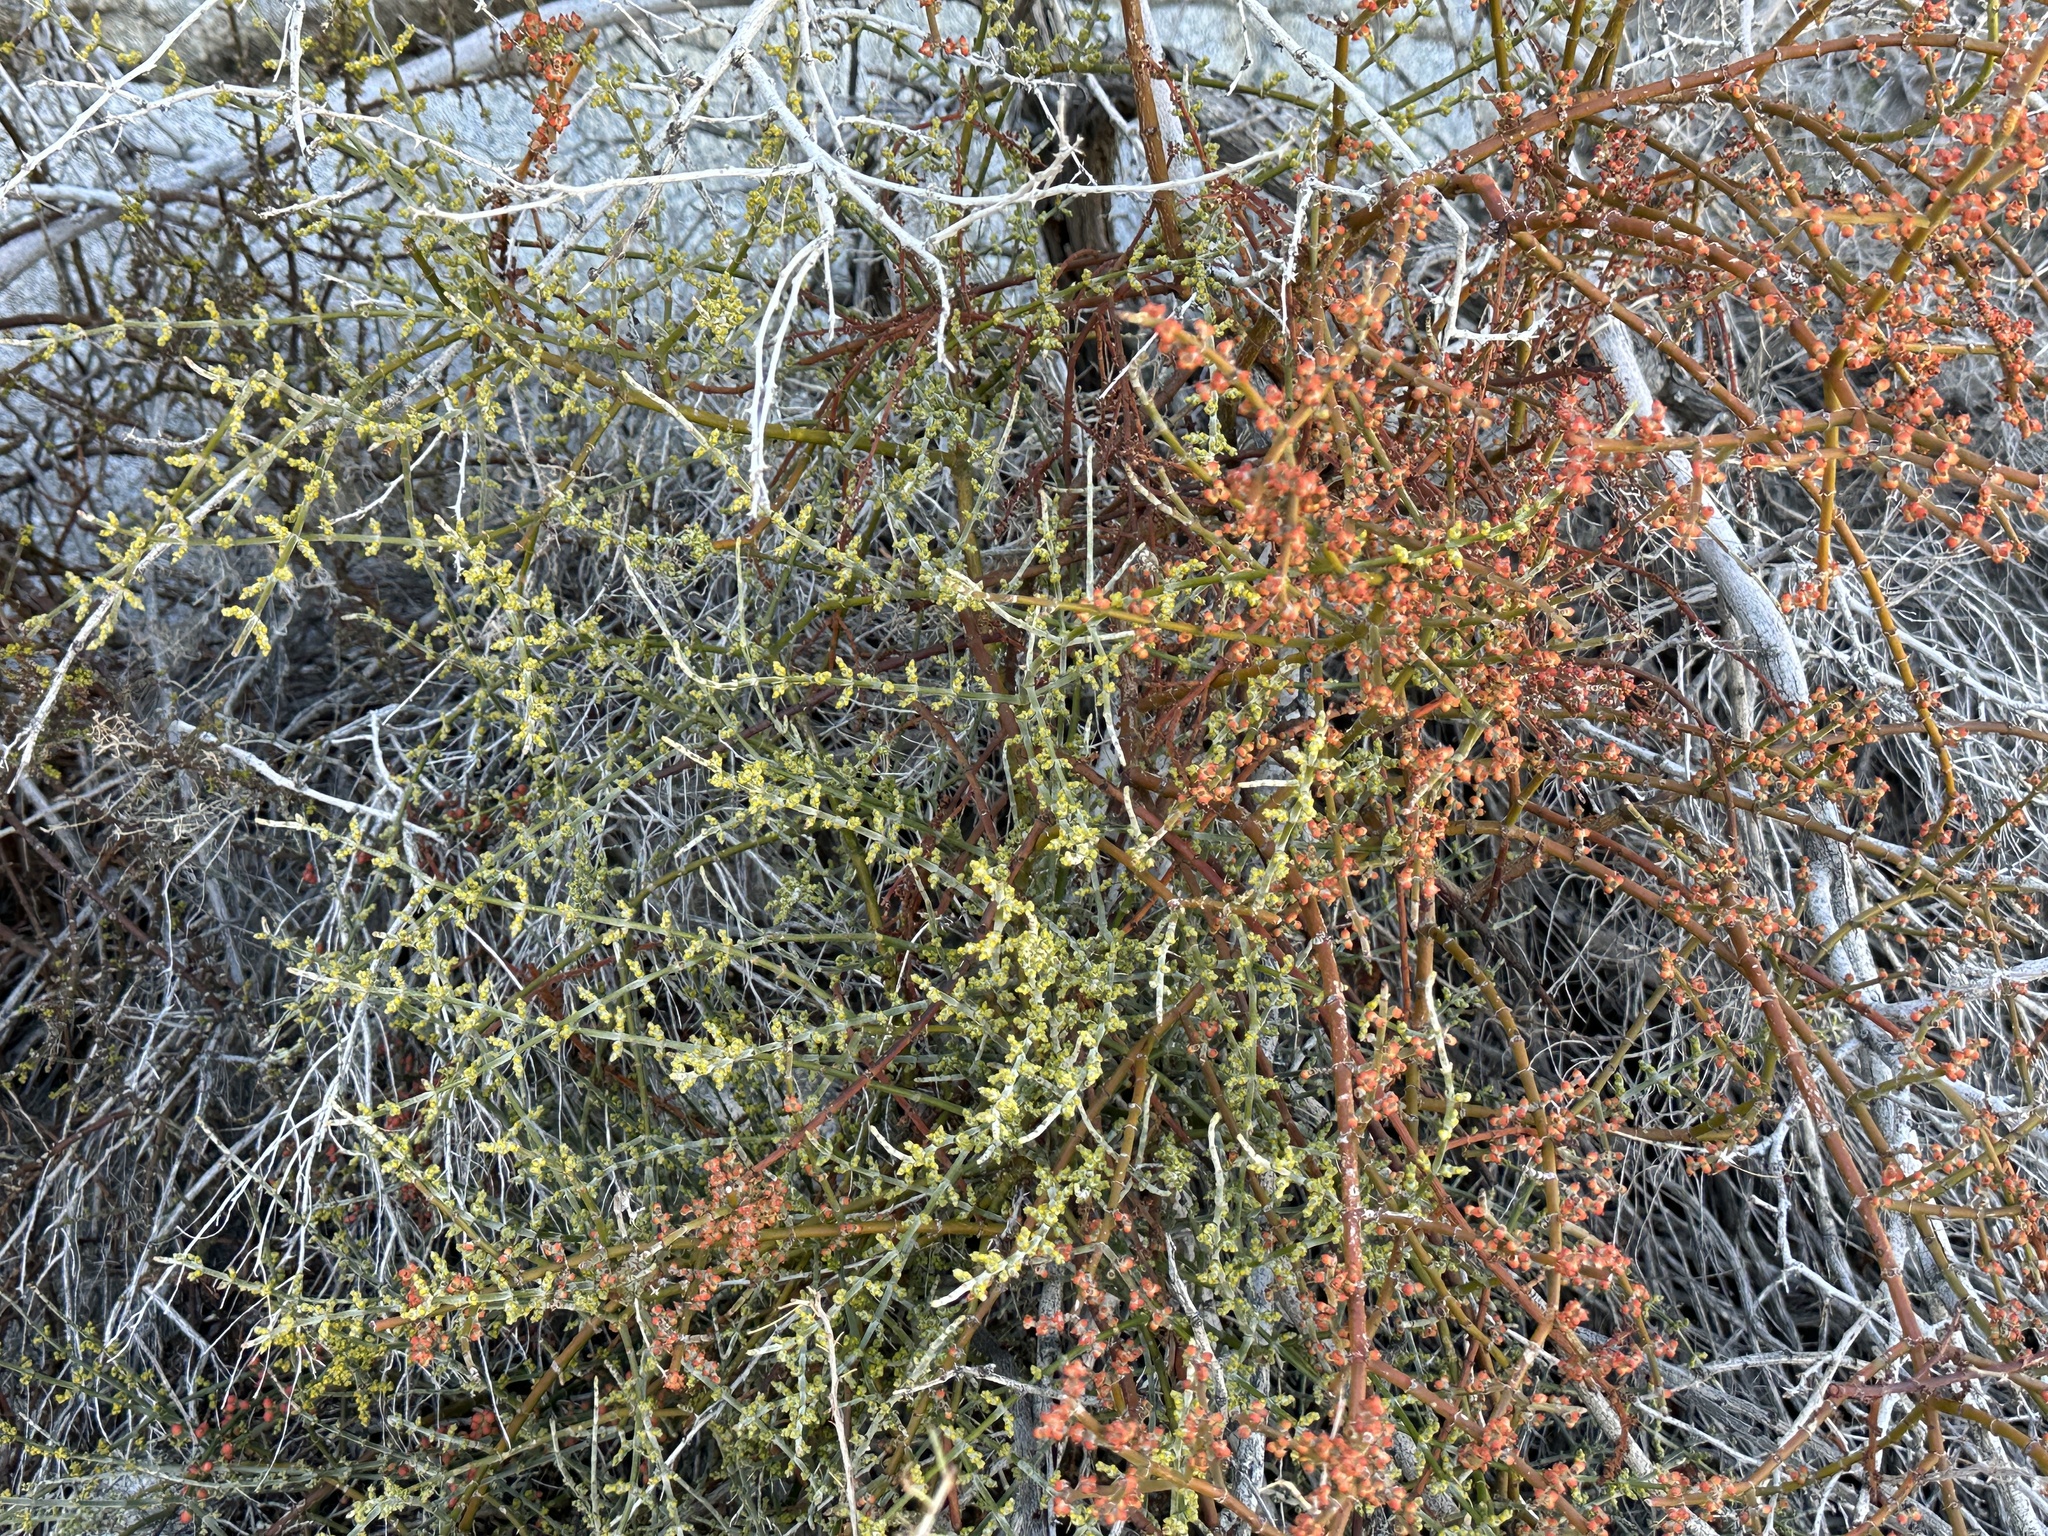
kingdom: Plantae
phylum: Tracheophyta
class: Magnoliopsida
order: Santalales
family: Viscaceae
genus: Phoradendron
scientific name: Phoradendron californicum
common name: Acacia mistletoe
